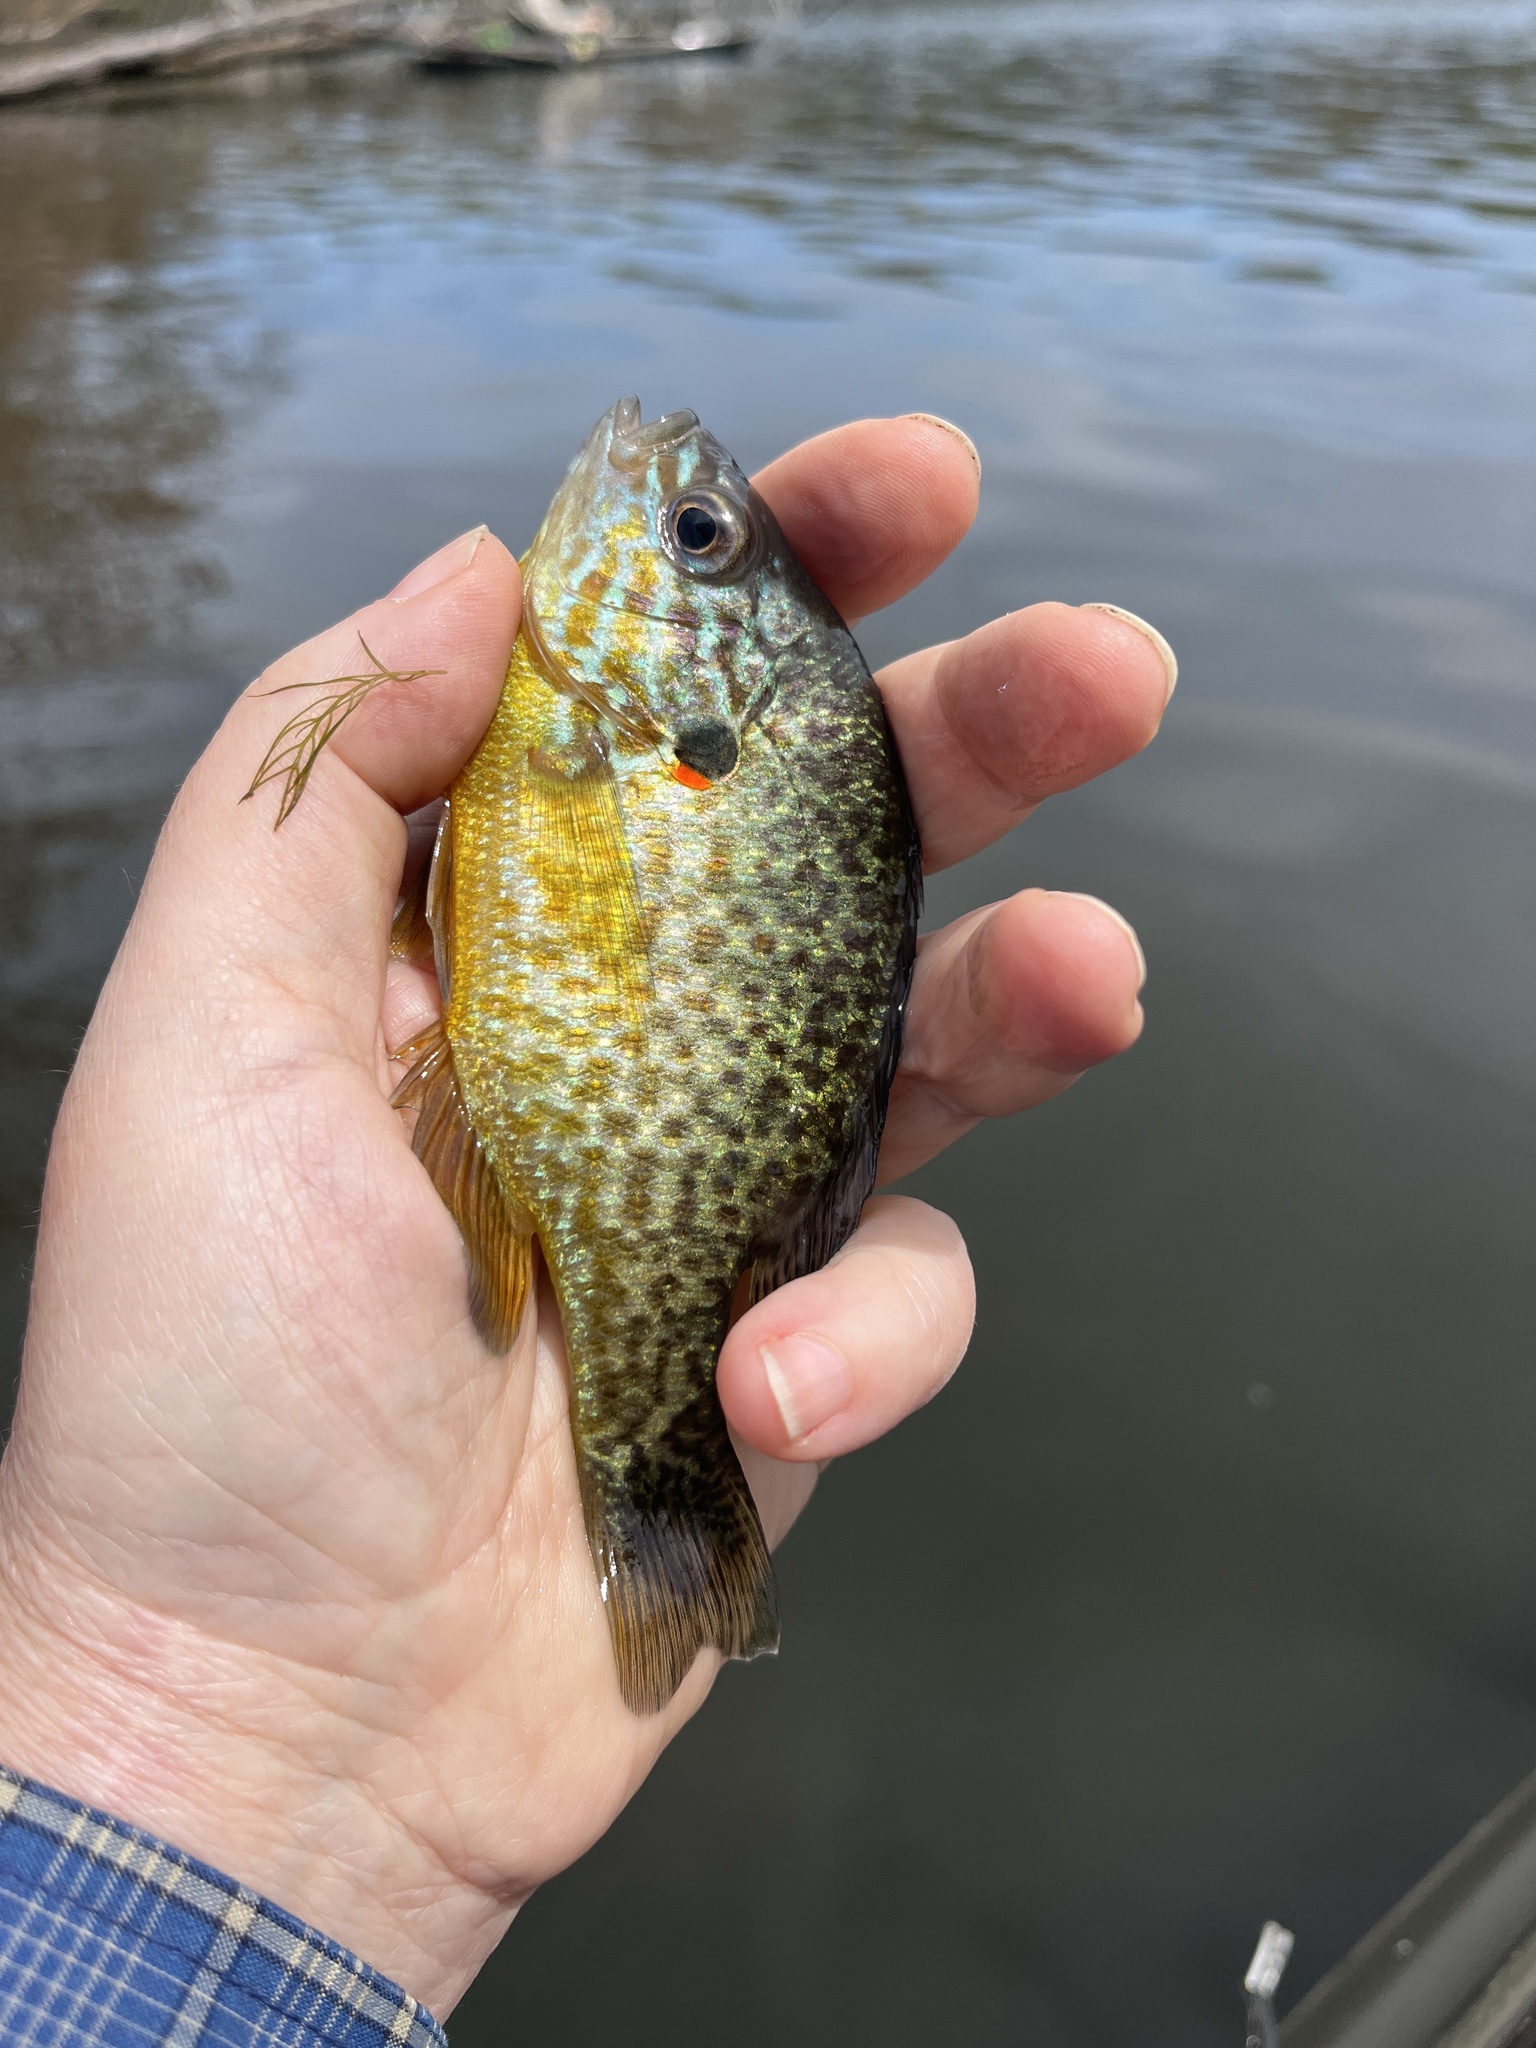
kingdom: Animalia
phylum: Chordata
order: Perciformes
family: Centrarchidae
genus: Lepomis
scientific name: Lepomis gibbosus
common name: Pumpkinseed
